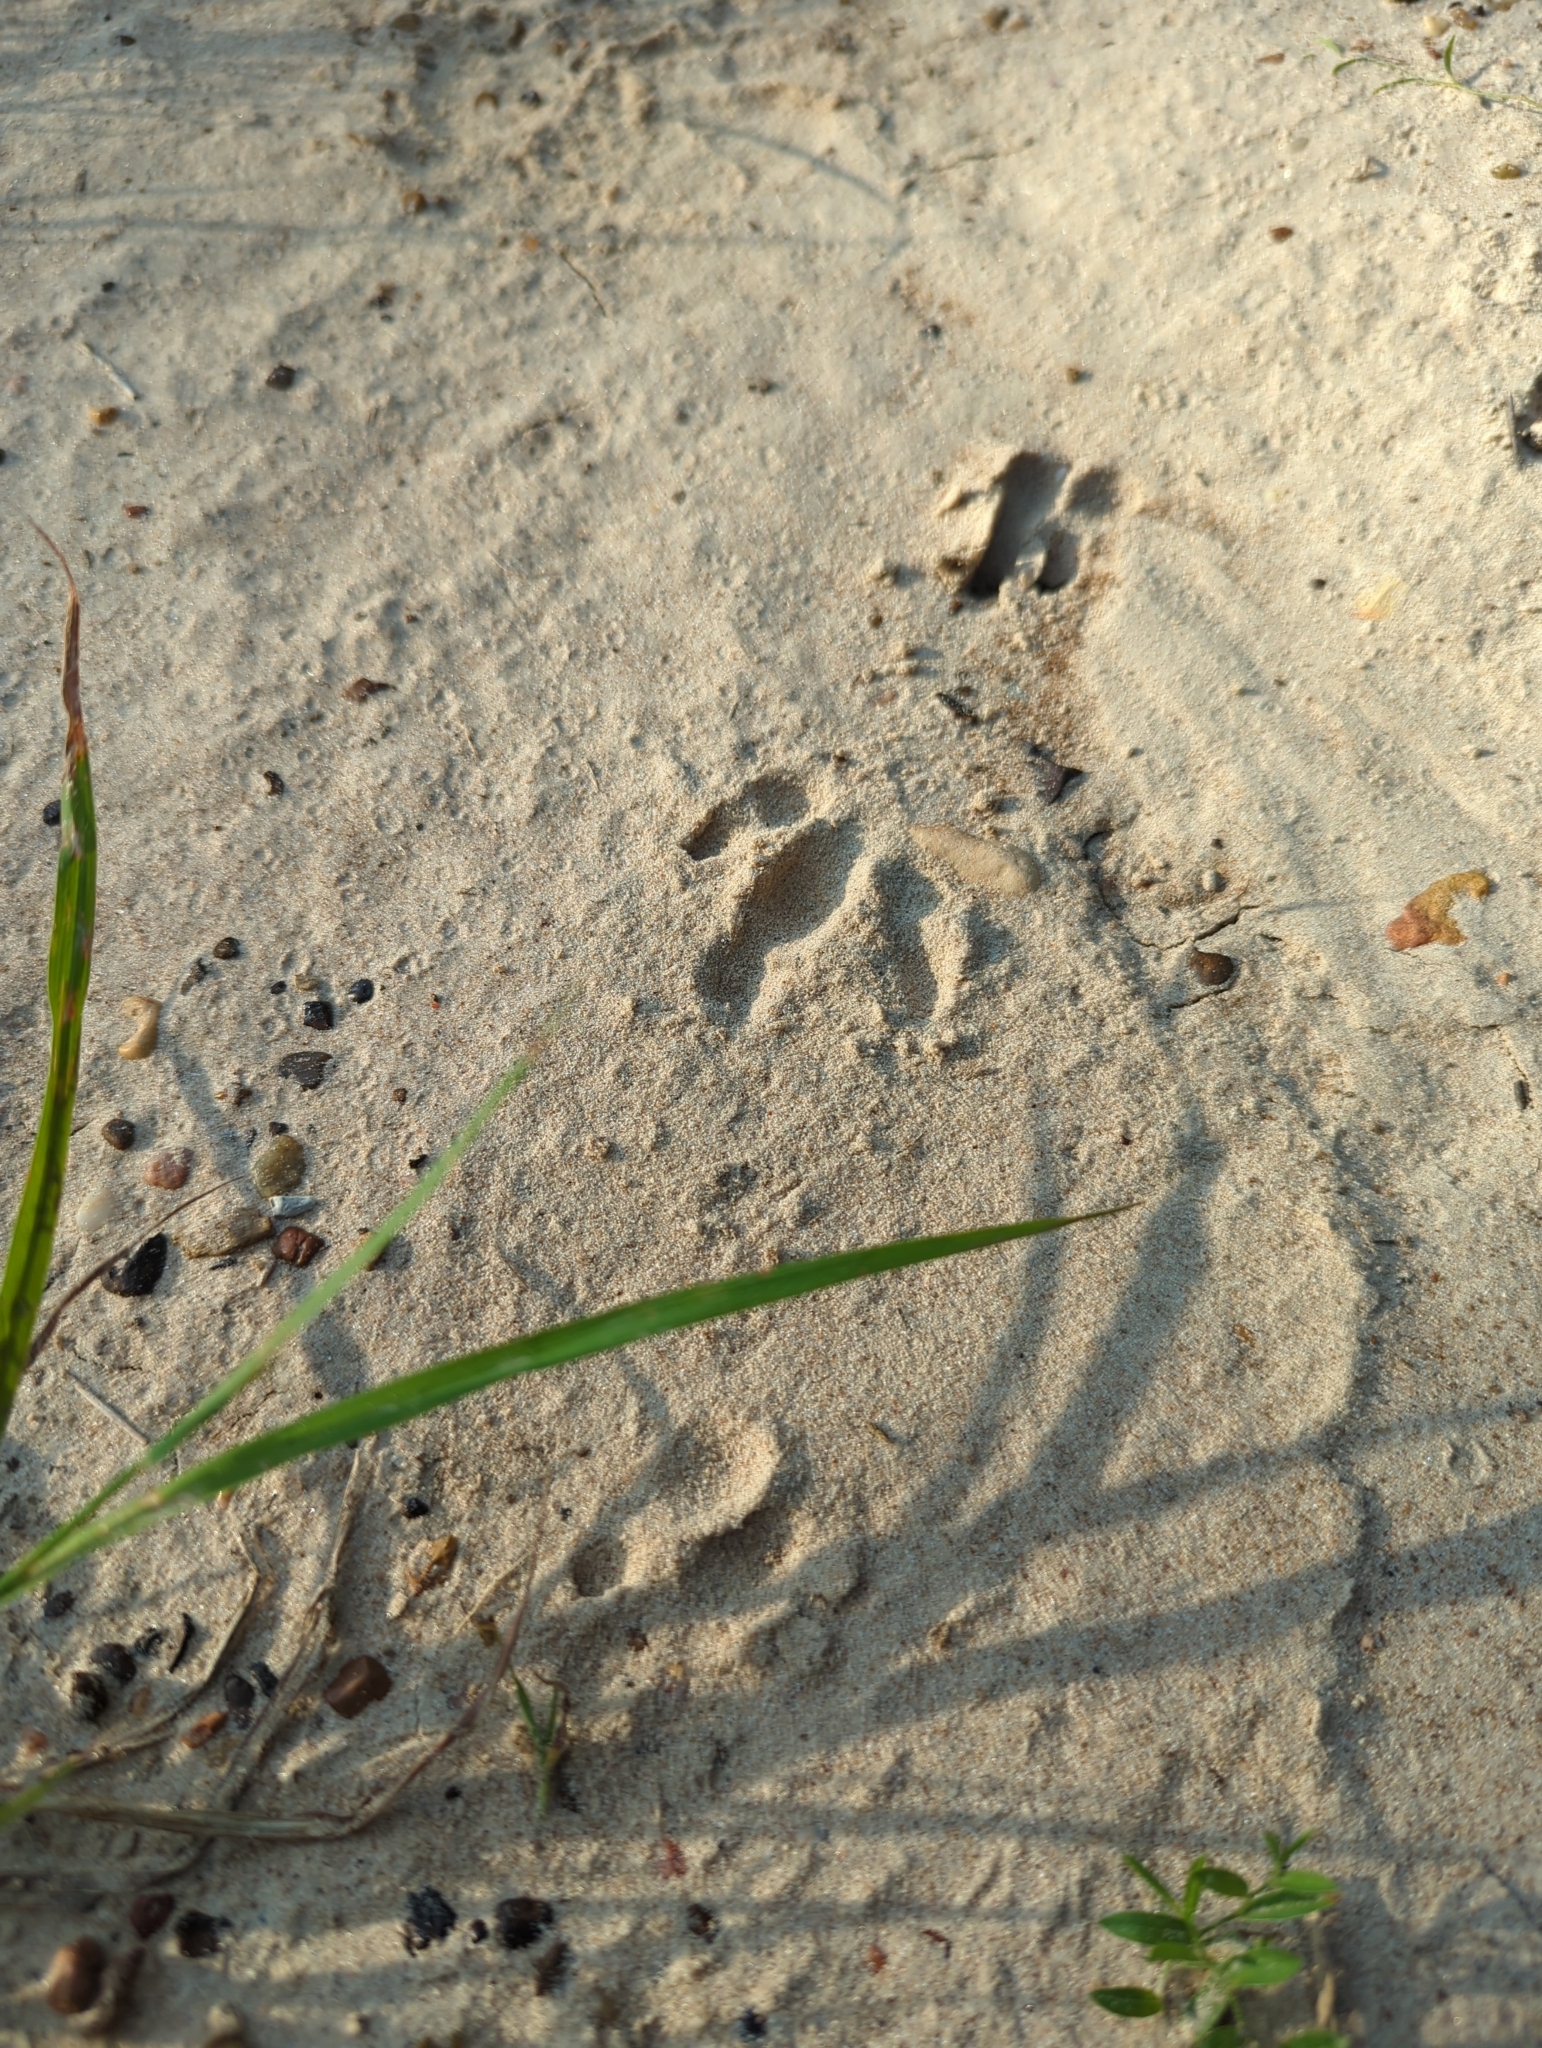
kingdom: Animalia
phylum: Chordata
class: Mammalia
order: Cingulata
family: Dasypodidae
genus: Dasypus
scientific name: Dasypus novemcinctus
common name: Nine-banded armadillo
